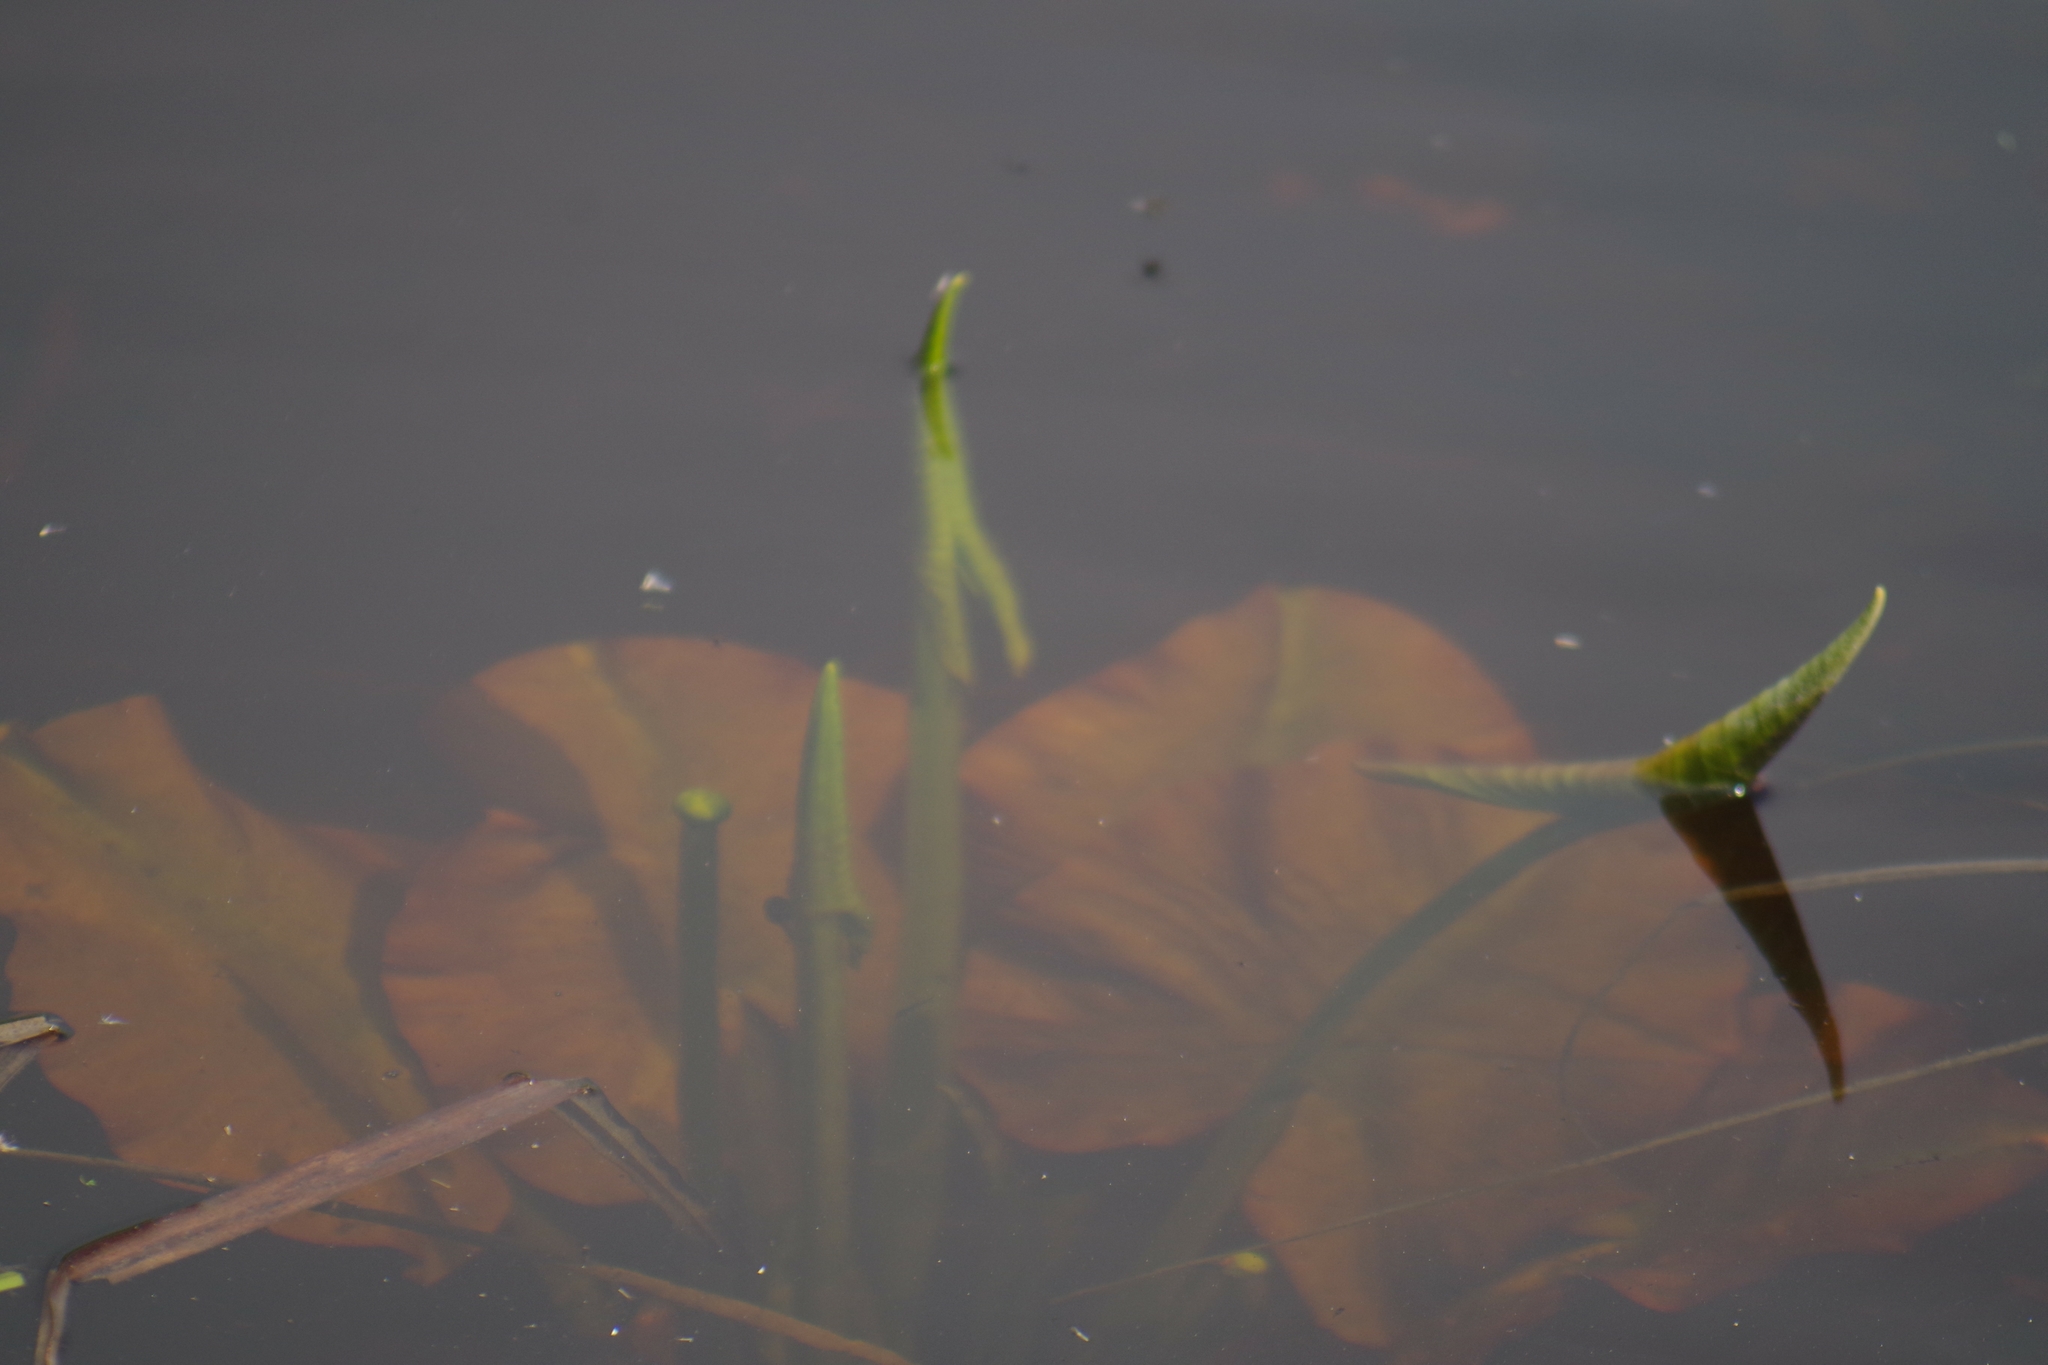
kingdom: Plantae
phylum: Tracheophyta
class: Magnoliopsida
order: Nymphaeales
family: Nymphaeaceae
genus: Nuphar
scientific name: Nuphar variegata
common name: Beaver-root
